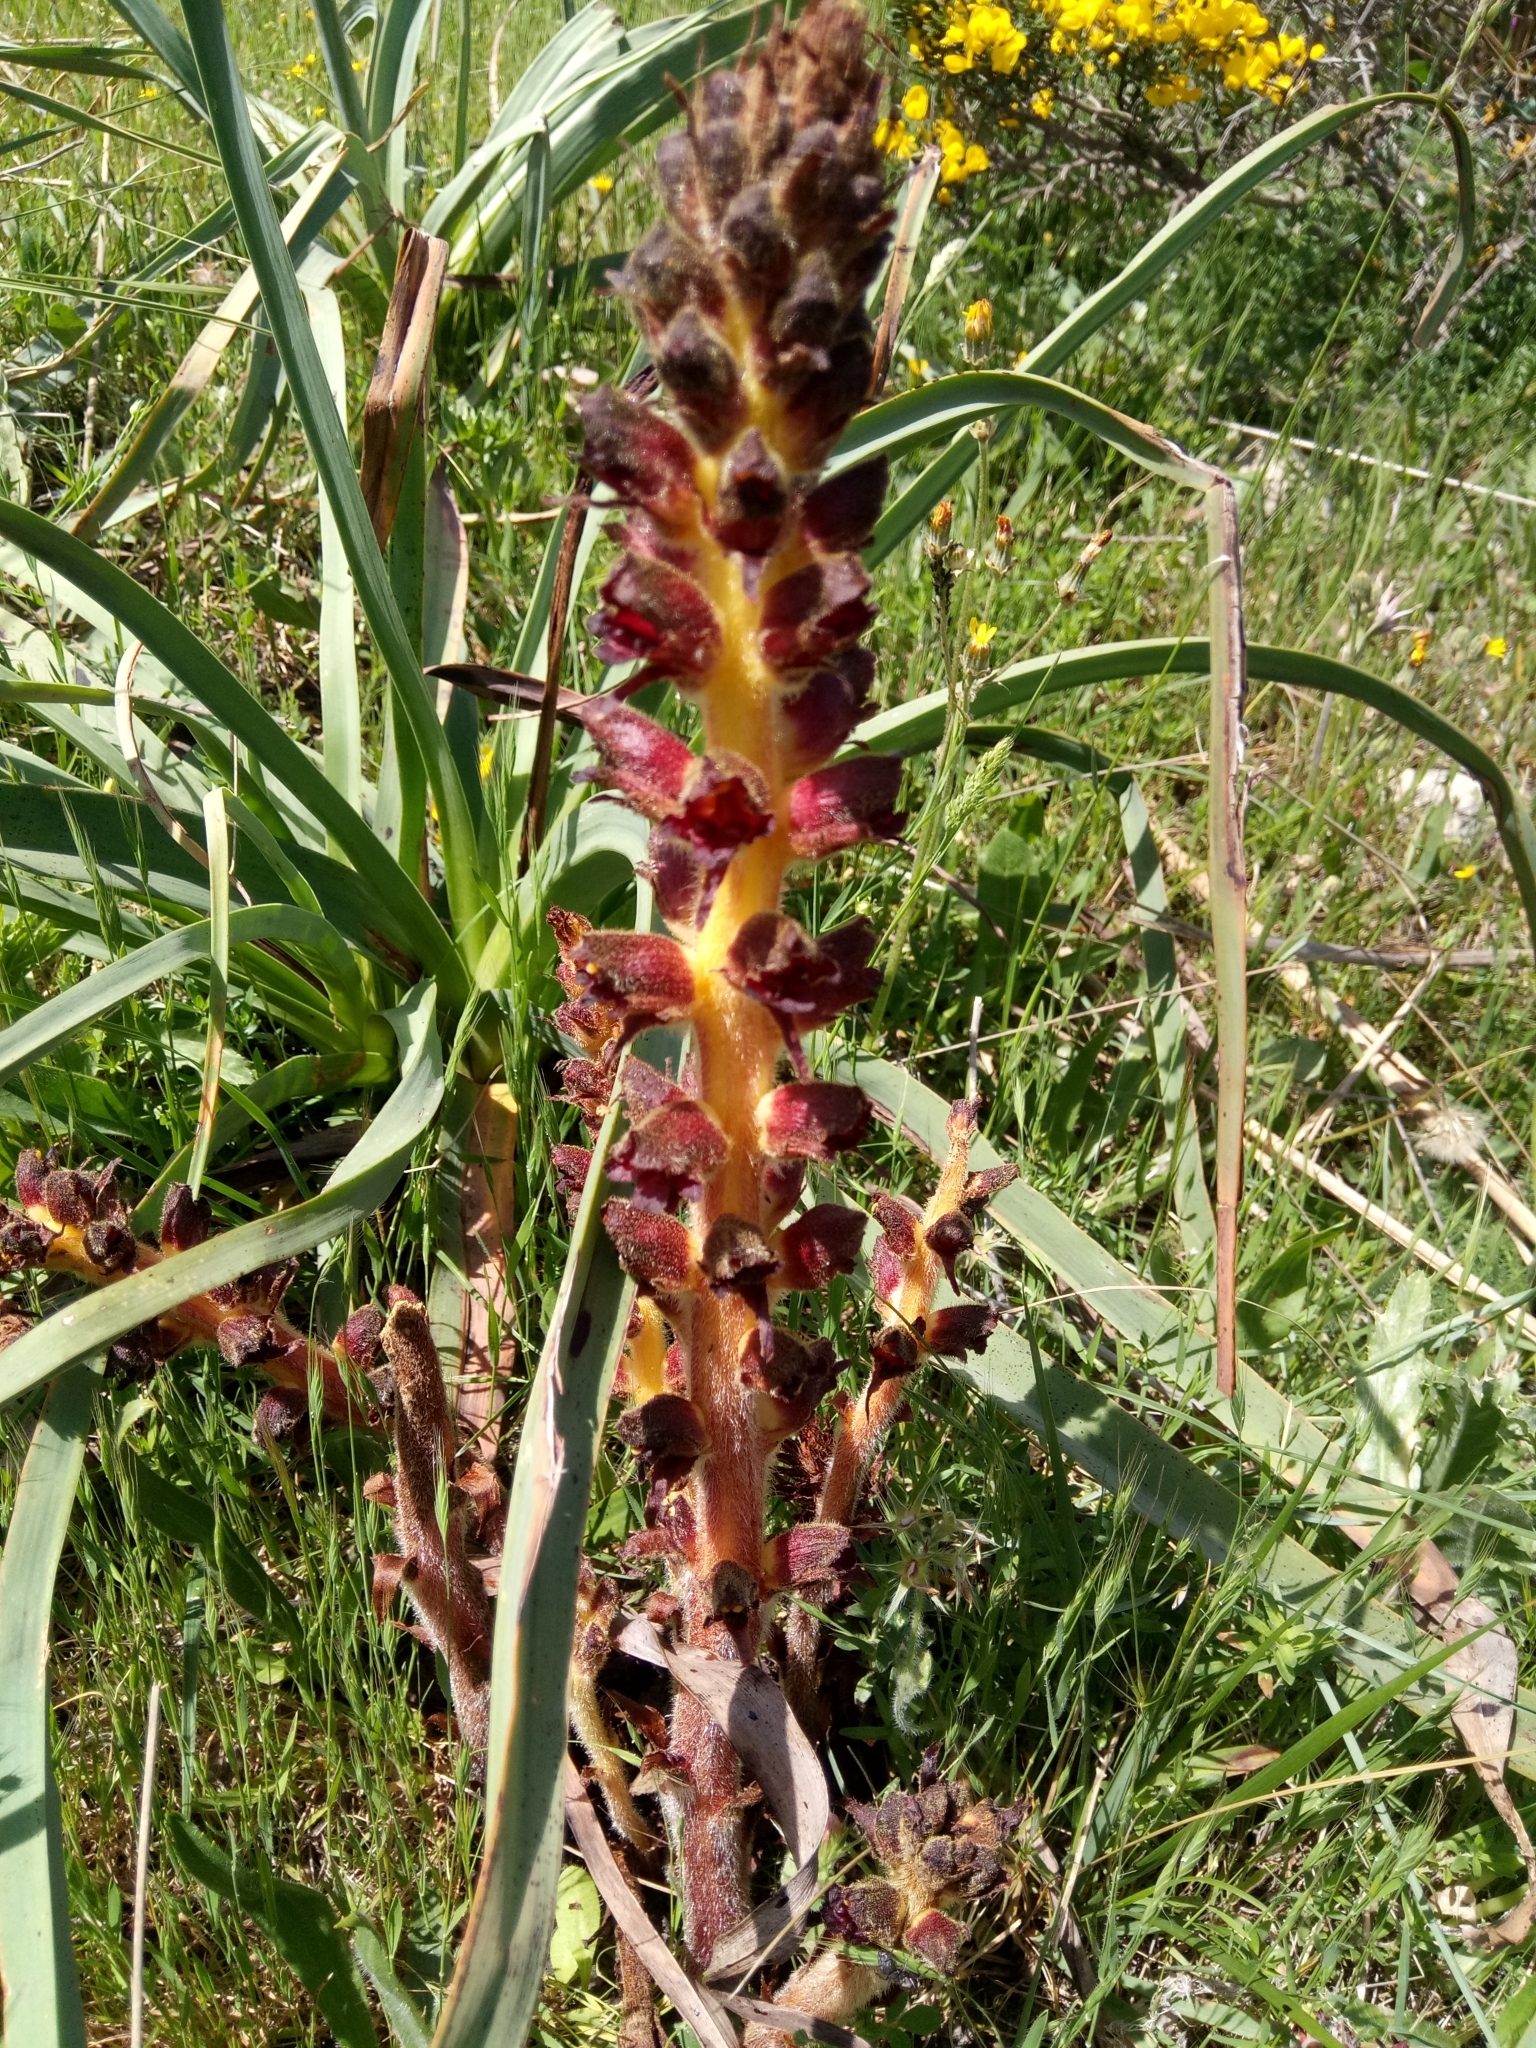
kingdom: Plantae
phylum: Tracheophyta
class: Magnoliopsida
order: Lamiales
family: Orobanchaceae
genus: Orobanche
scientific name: Orobanche variegata
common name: Variegated broomrape
